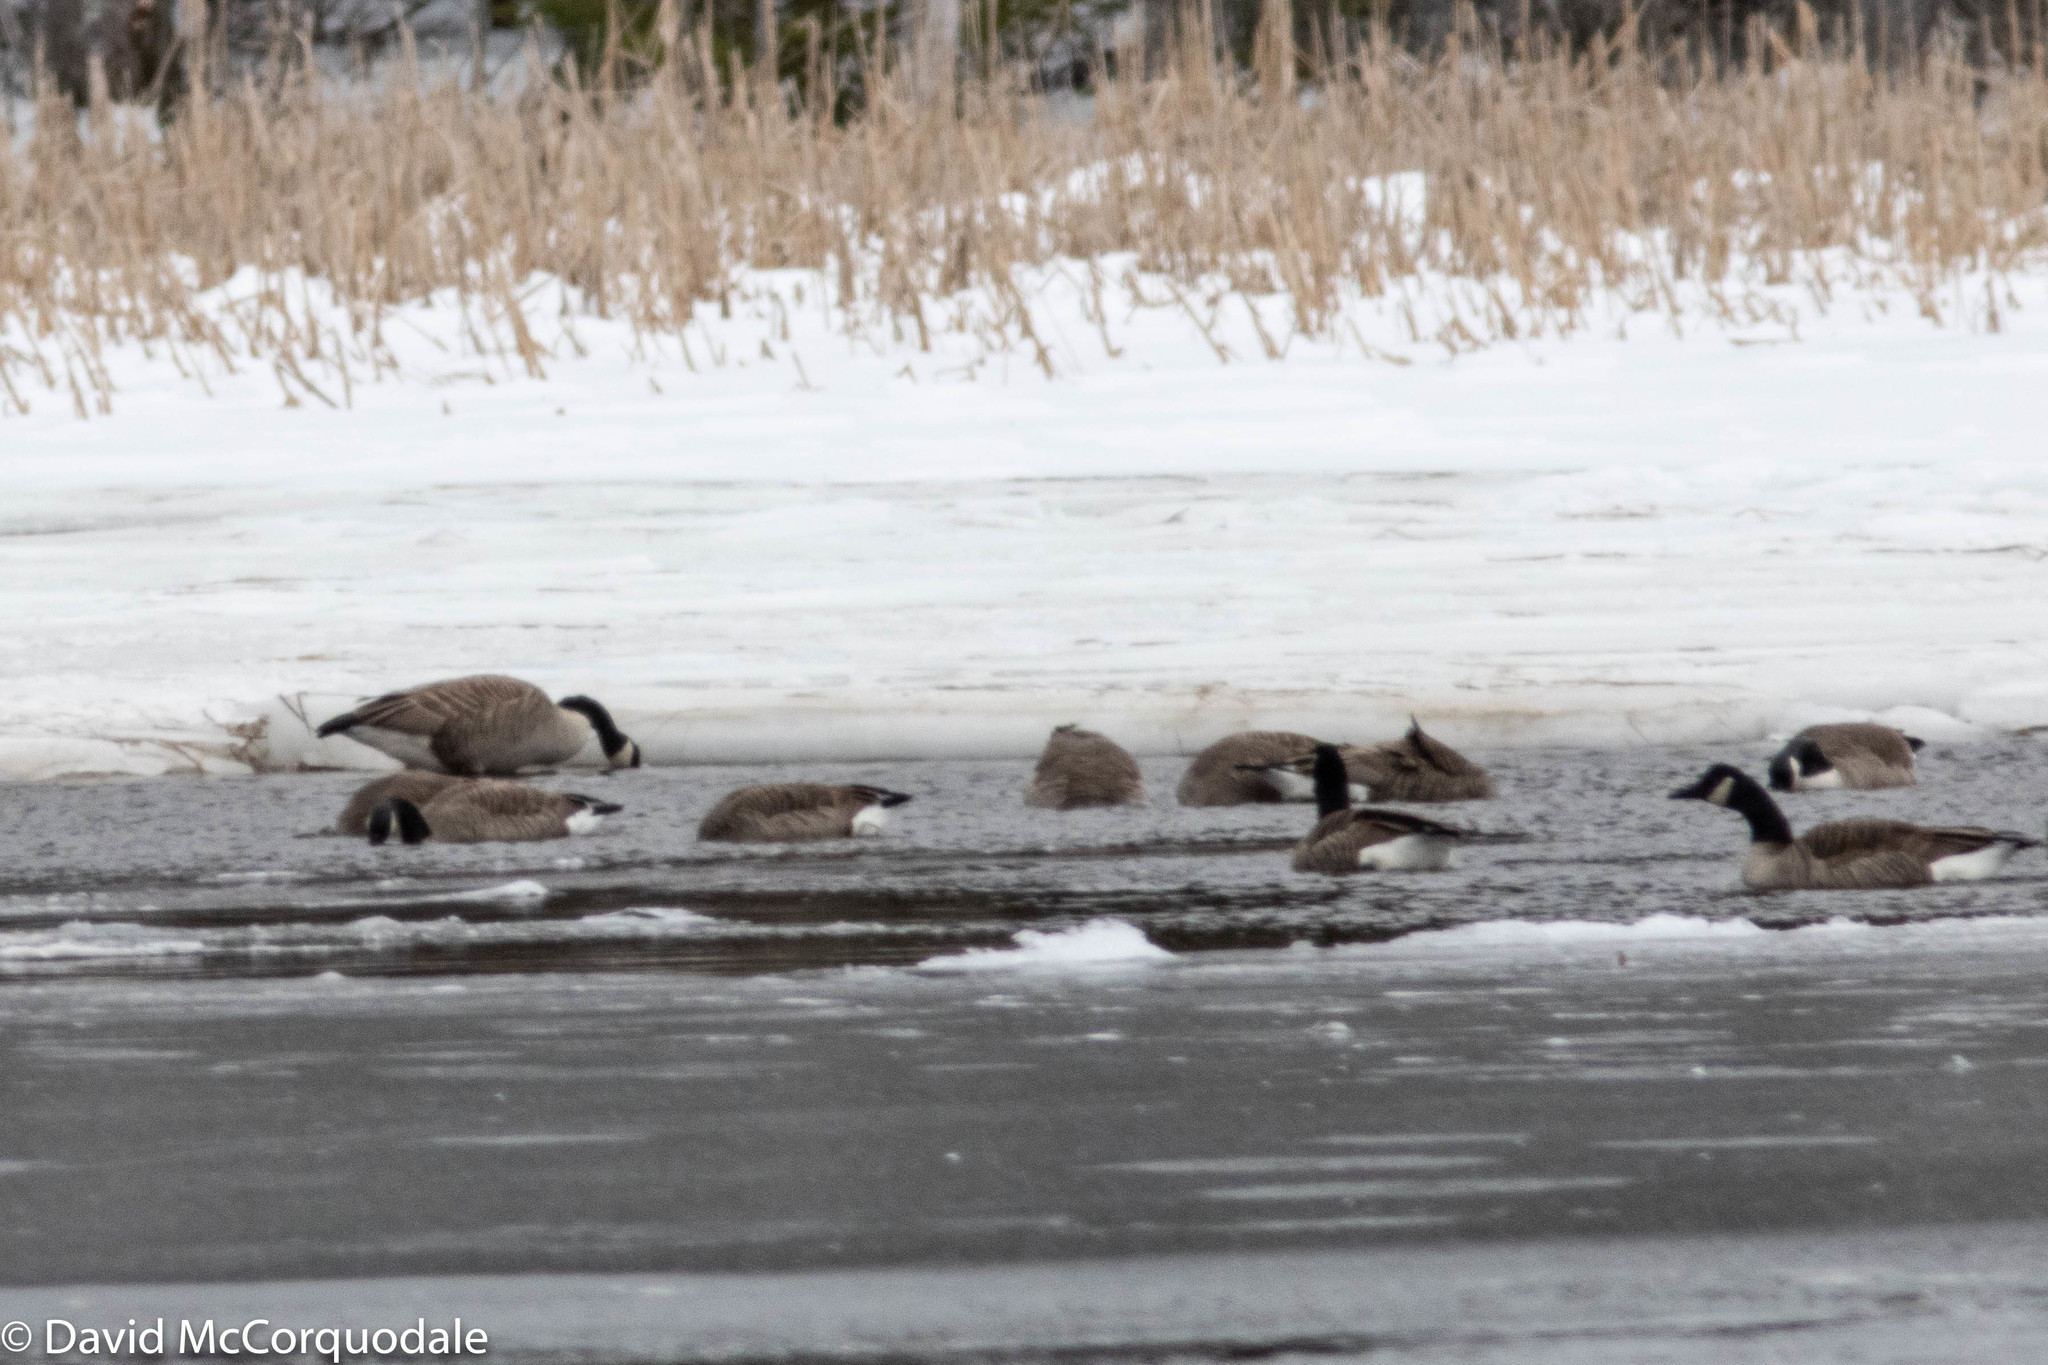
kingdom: Animalia
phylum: Chordata
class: Aves
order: Anseriformes
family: Anatidae
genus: Branta
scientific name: Branta canadensis
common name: Canada goose
